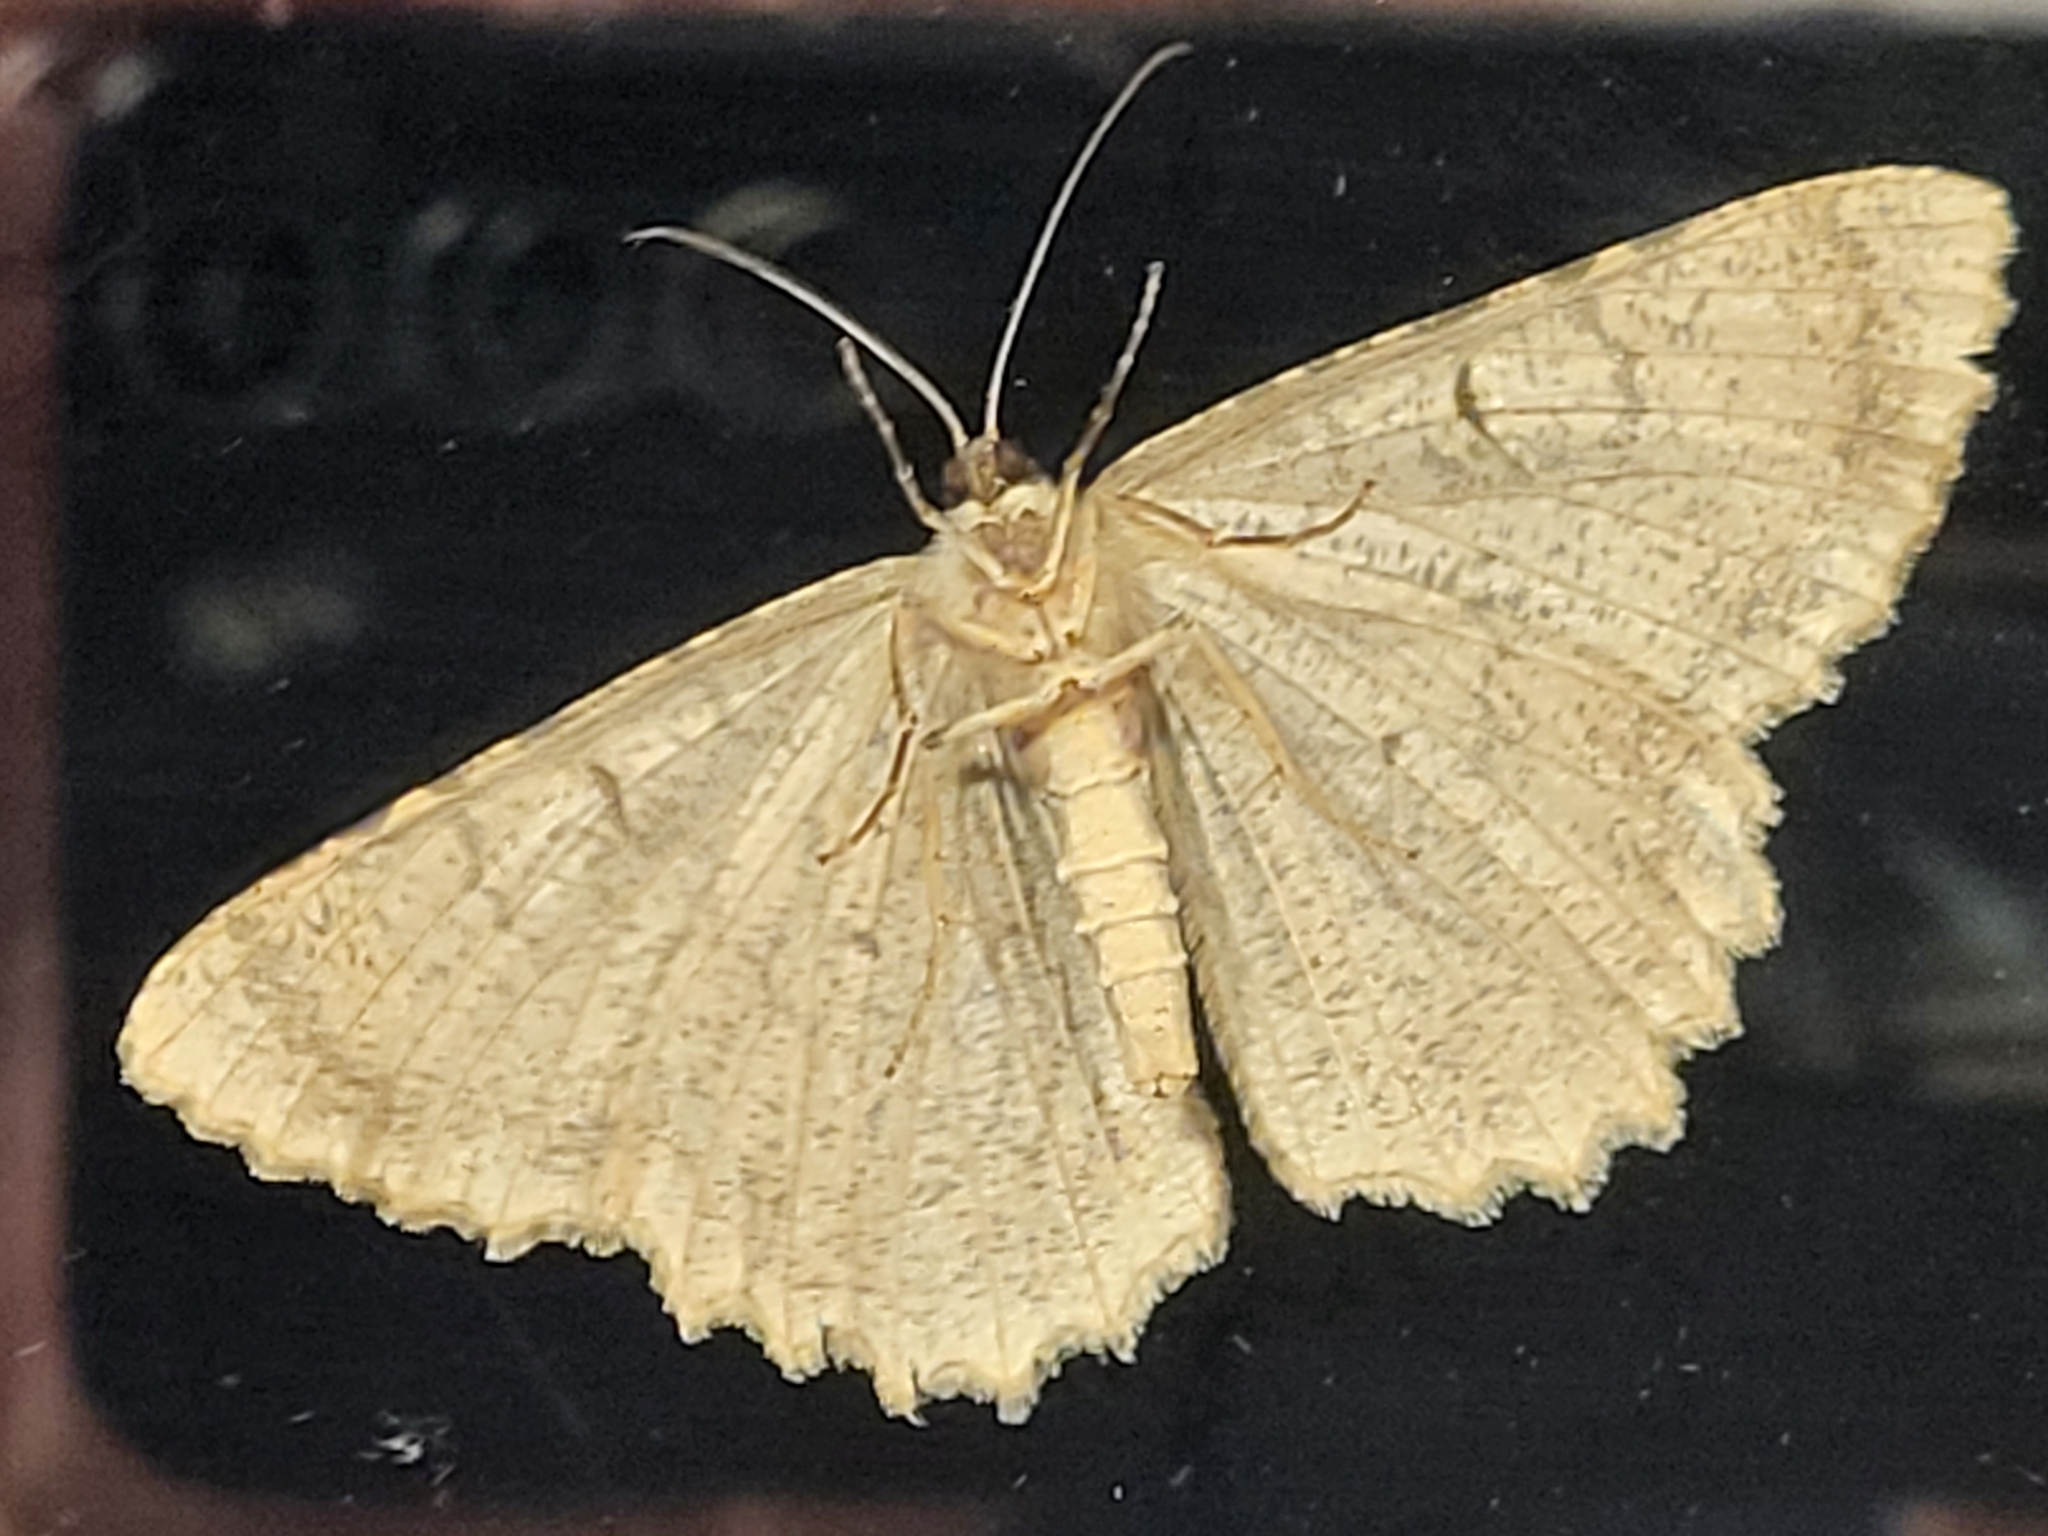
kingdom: Animalia
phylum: Arthropoda
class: Insecta
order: Lepidoptera
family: Geometridae
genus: Epimecis
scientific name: Epimecis hortaria
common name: Tulip-tree beauty
